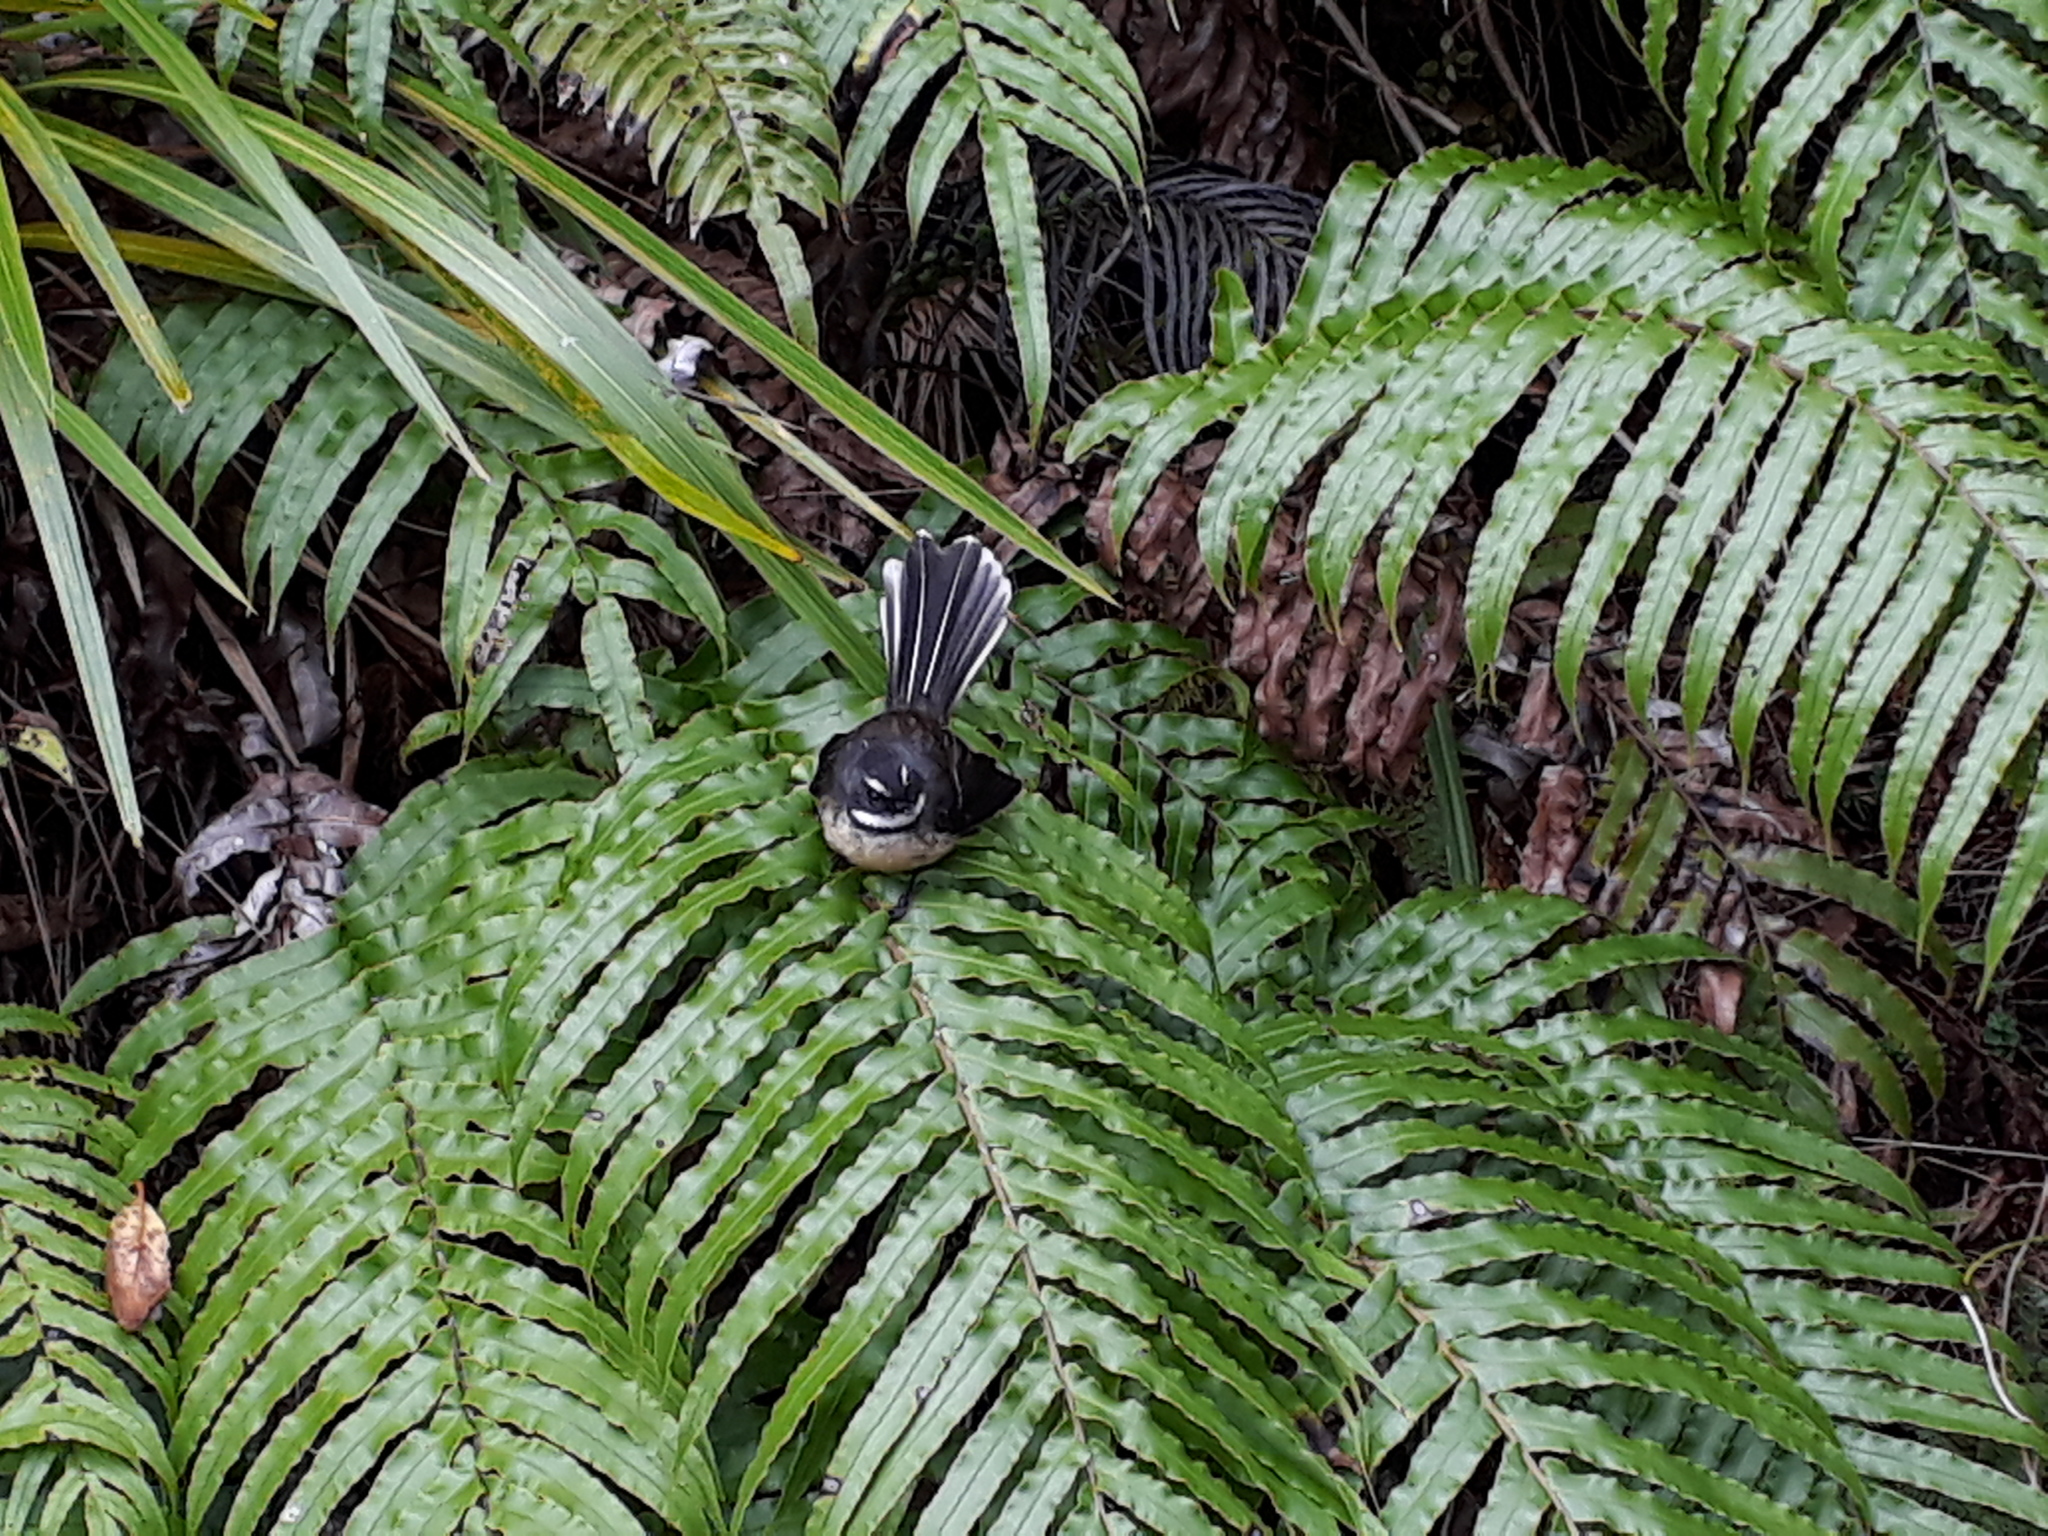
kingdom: Animalia
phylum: Chordata
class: Aves
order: Passeriformes
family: Rhipiduridae
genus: Rhipidura
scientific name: Rhipidura fuliginosa
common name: New zealand fantail
